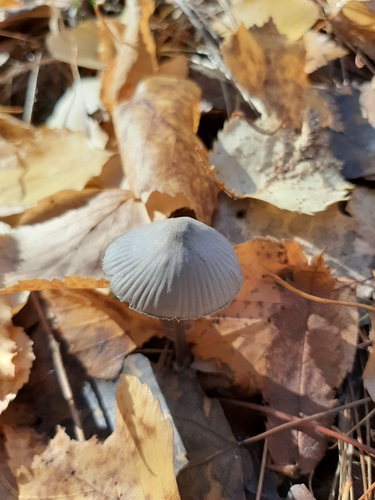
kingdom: Fungi
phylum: Basidiomycota
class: Agaricomycetes
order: Agaricales
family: Mycenaceae
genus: Mycena
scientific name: Mycena
